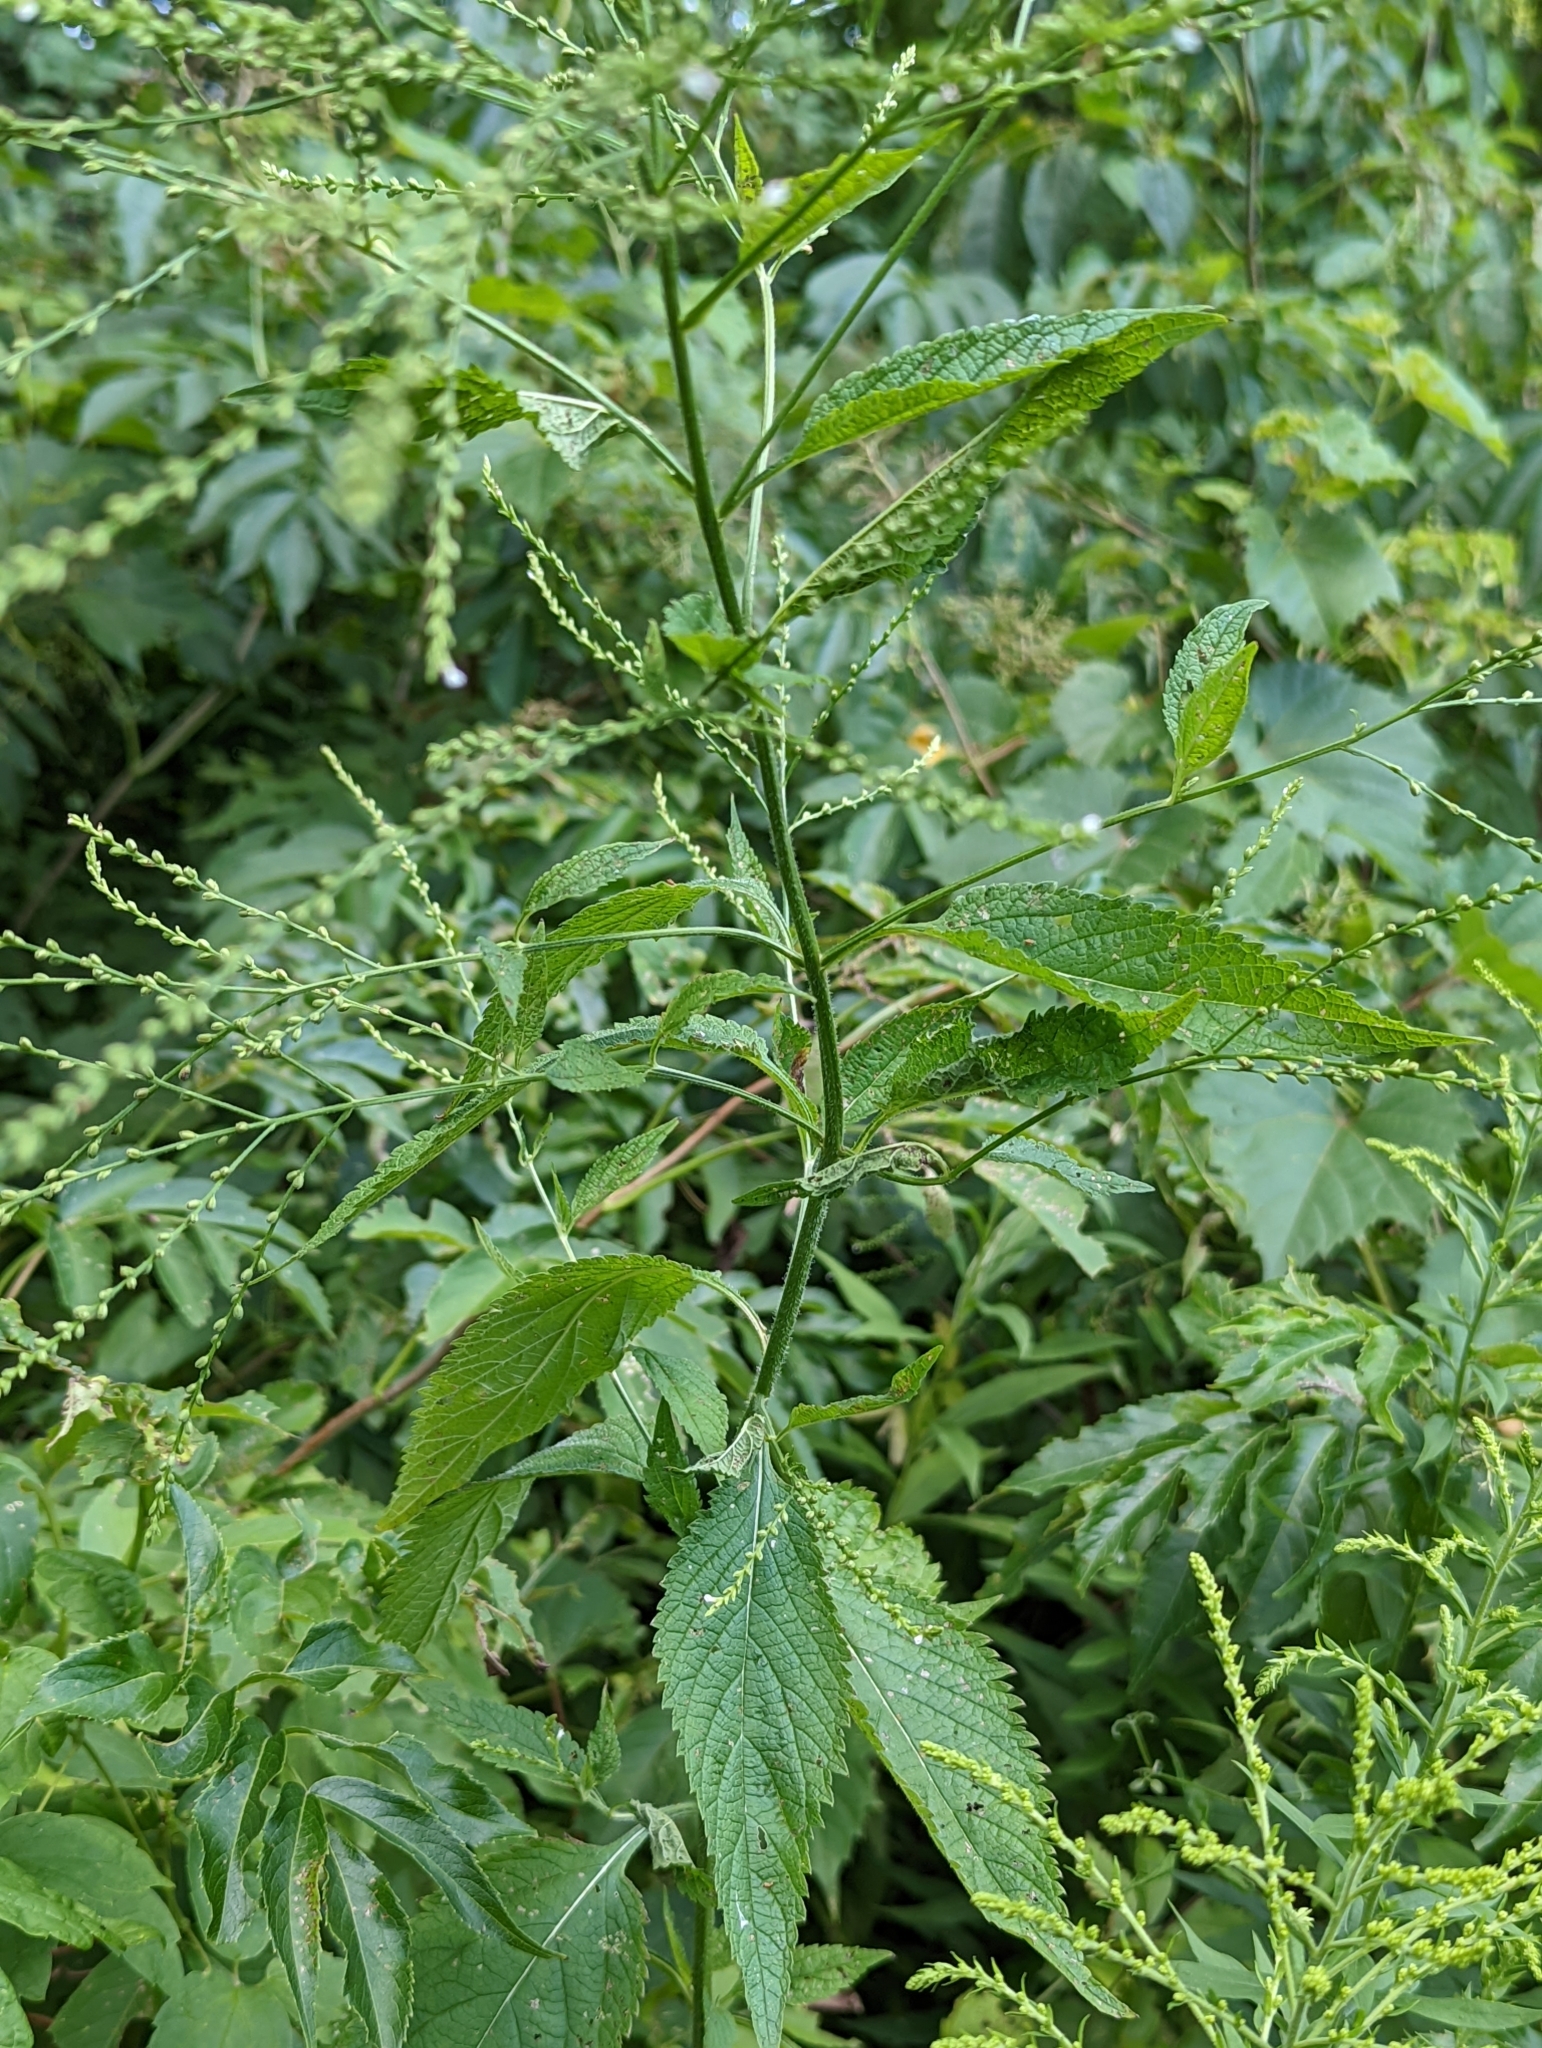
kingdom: Plantae
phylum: Tracheophyta
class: Magnoliopsida
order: Lamiales
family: Verbenaceae
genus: Verbena
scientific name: Verbena urticifolia
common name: Nettle-leaved vervain
